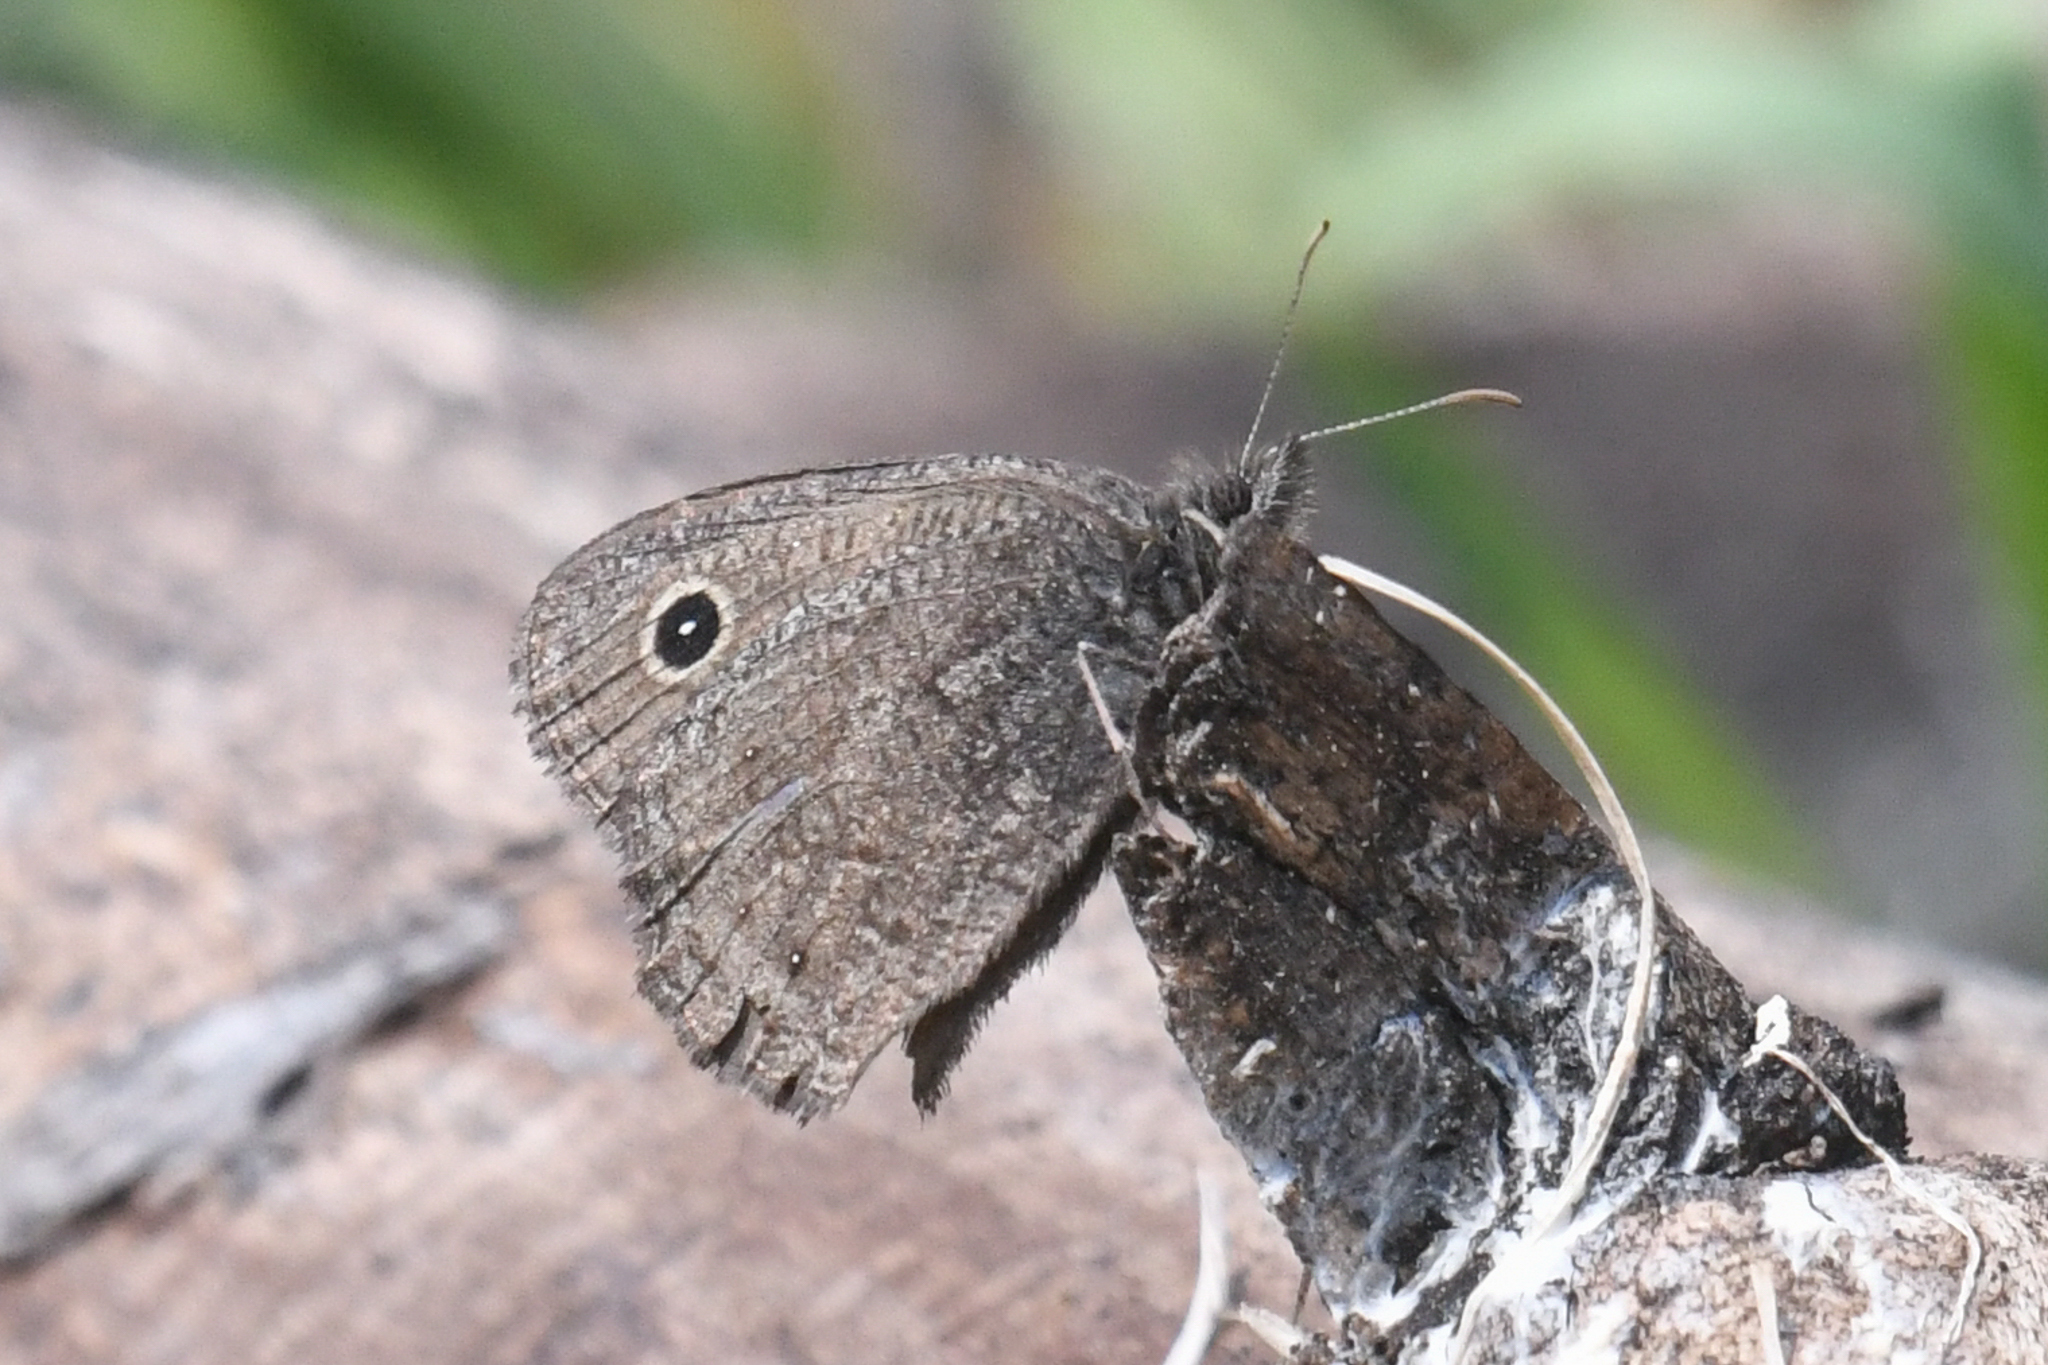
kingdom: Animalia
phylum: Arthropoda
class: Insecta
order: Lepidoptera
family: Nymphalidae
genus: Cercyonis
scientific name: Cercyonis oetus
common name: Small wood-nymph
